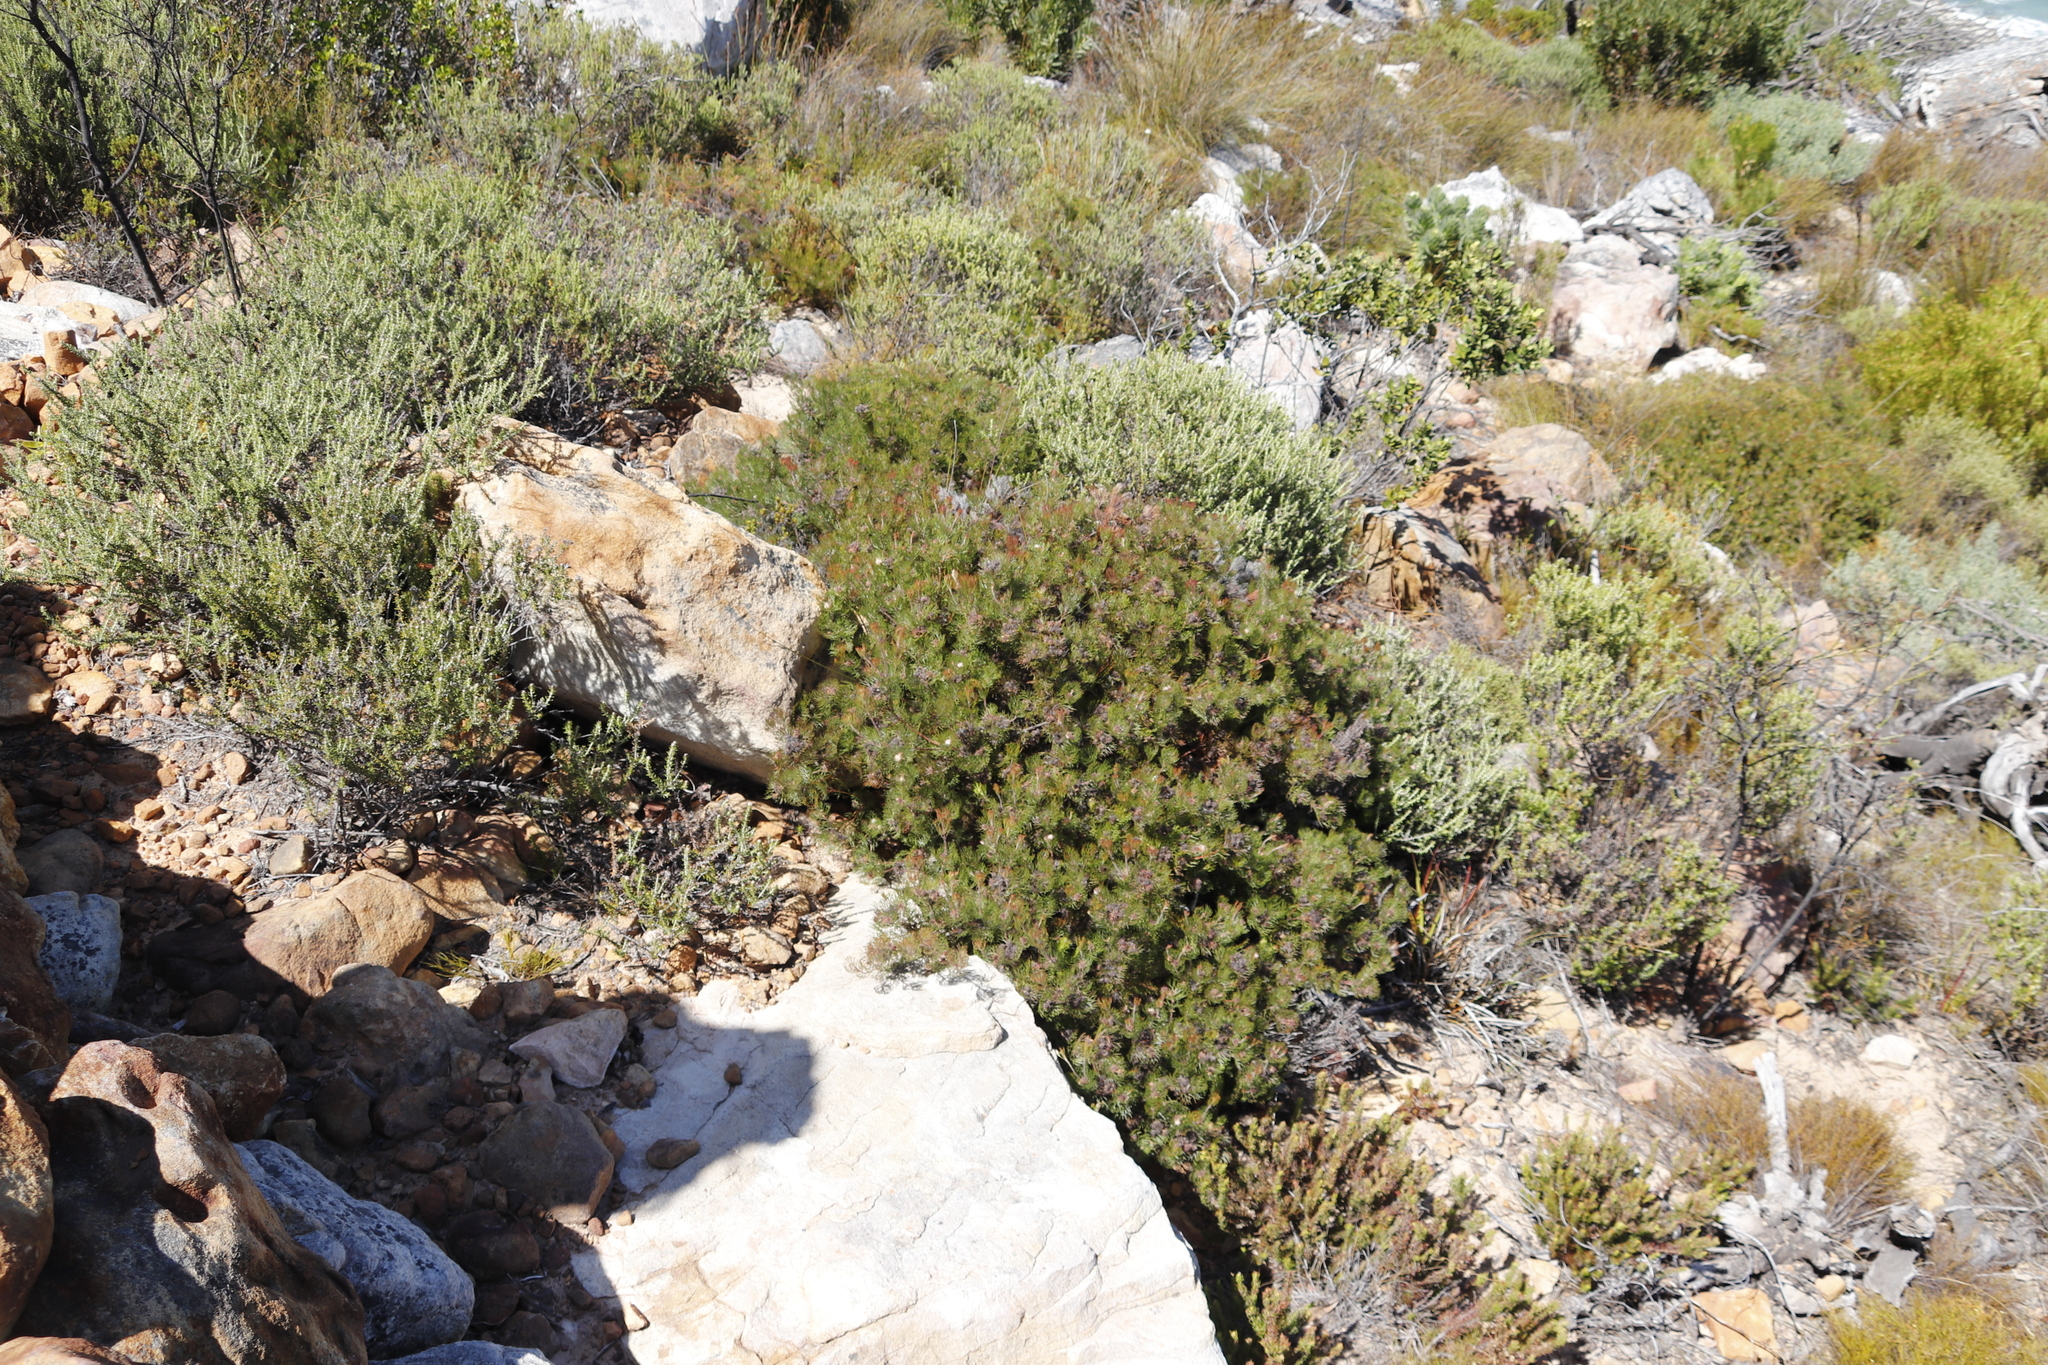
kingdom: Plantae
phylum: Tracheophyta
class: Magnoliopsida
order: Proteales
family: Proteaceae
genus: Serruria
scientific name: Serruria fasciflora
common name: Common pin spiderhead
